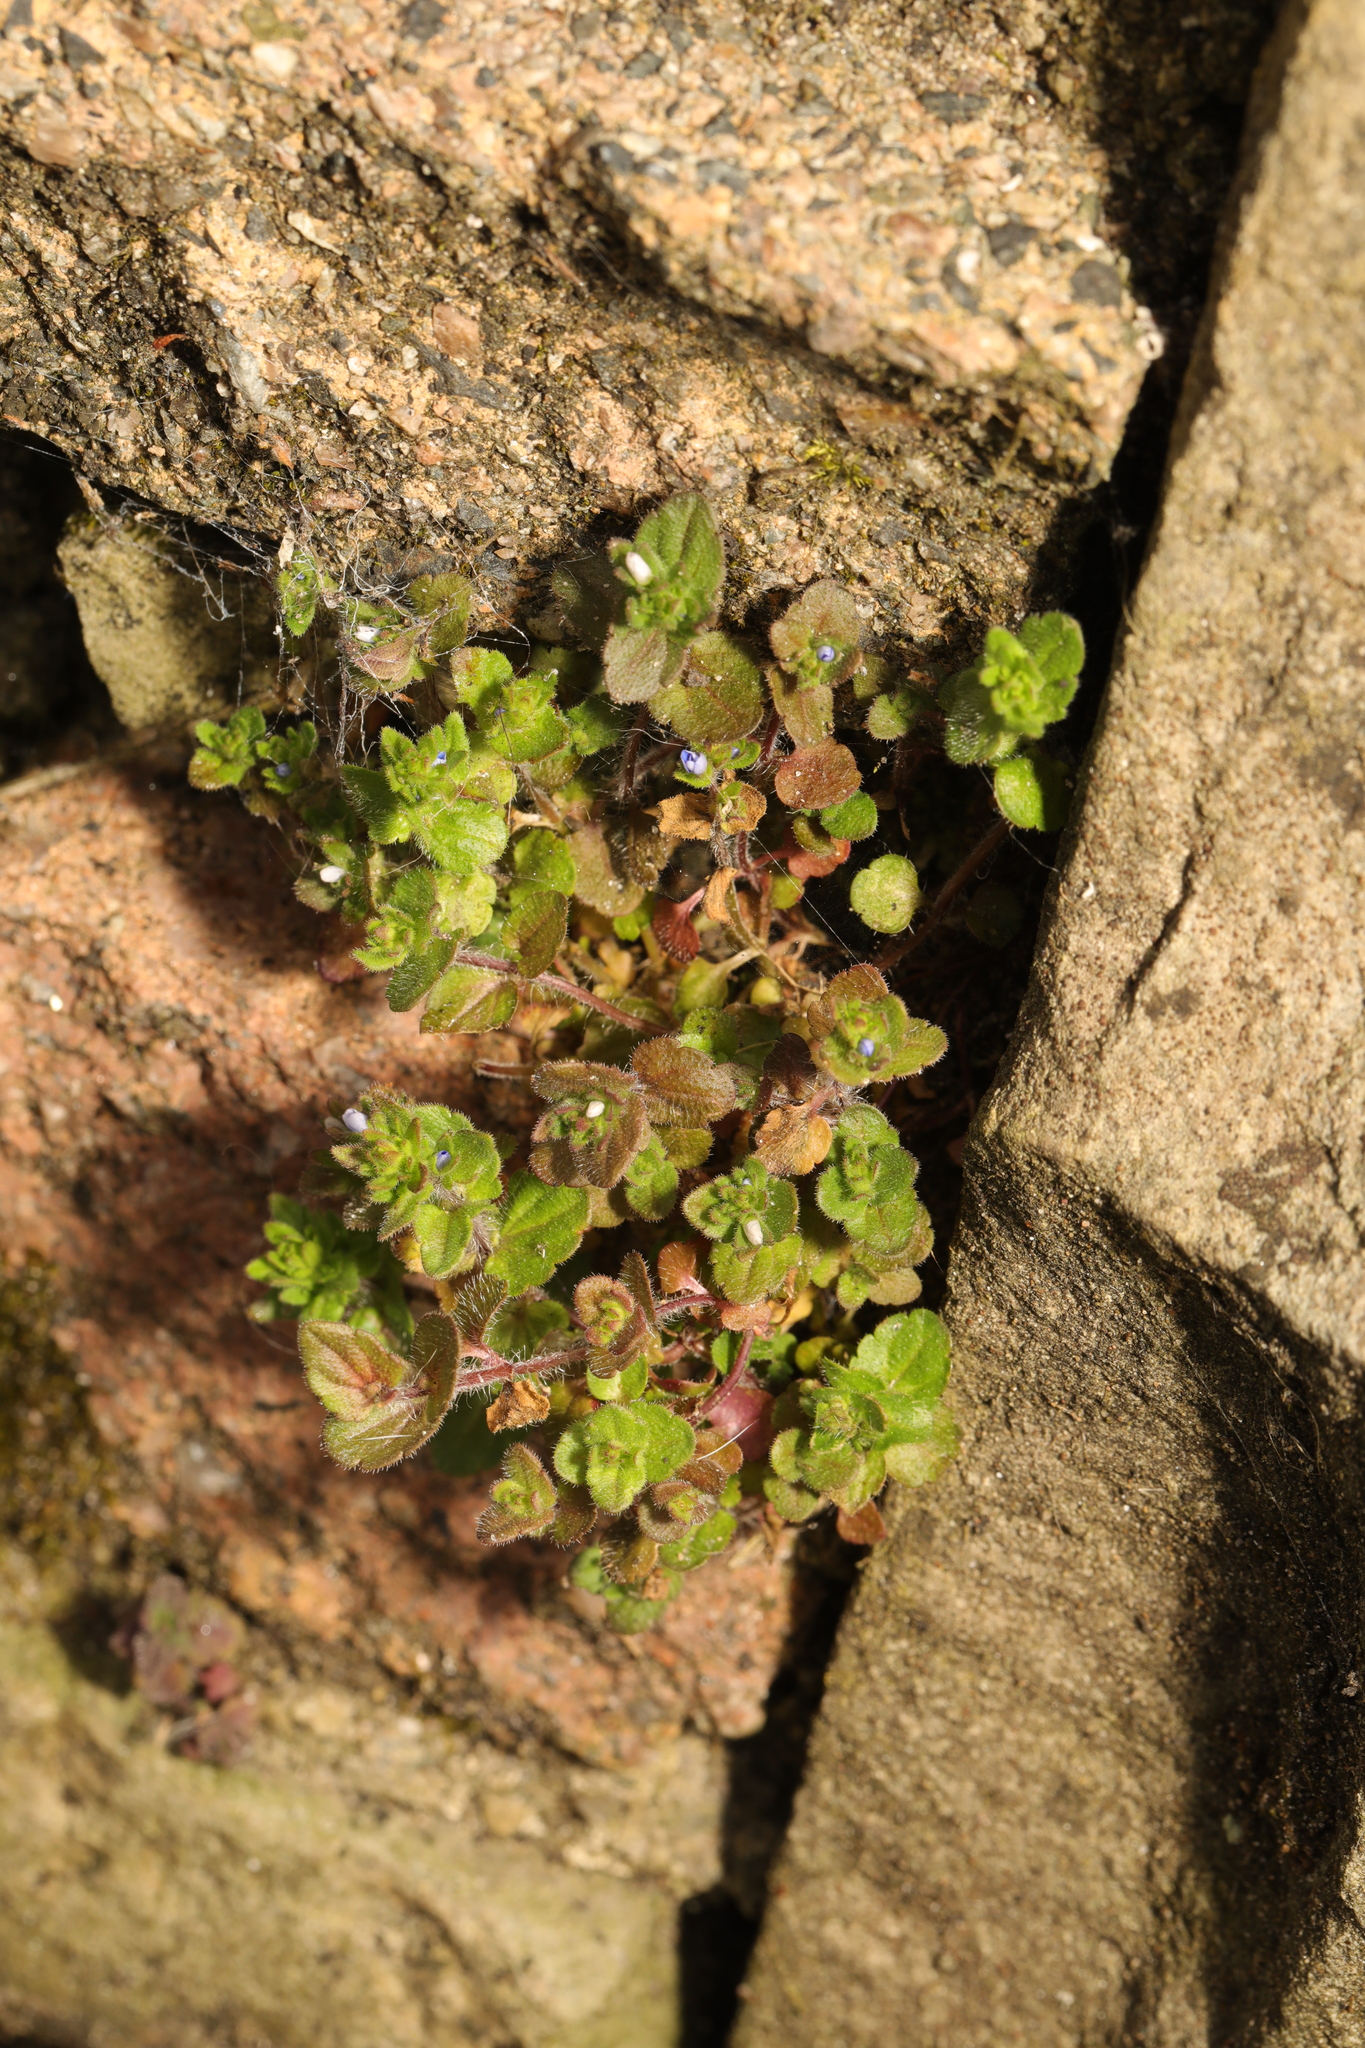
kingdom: Plantae
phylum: Tracheophyta
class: Magnoliopsida
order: Lamiales
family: Plantaginaceae
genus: Veronica
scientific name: Veronica arvensis
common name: Corn speedwell
